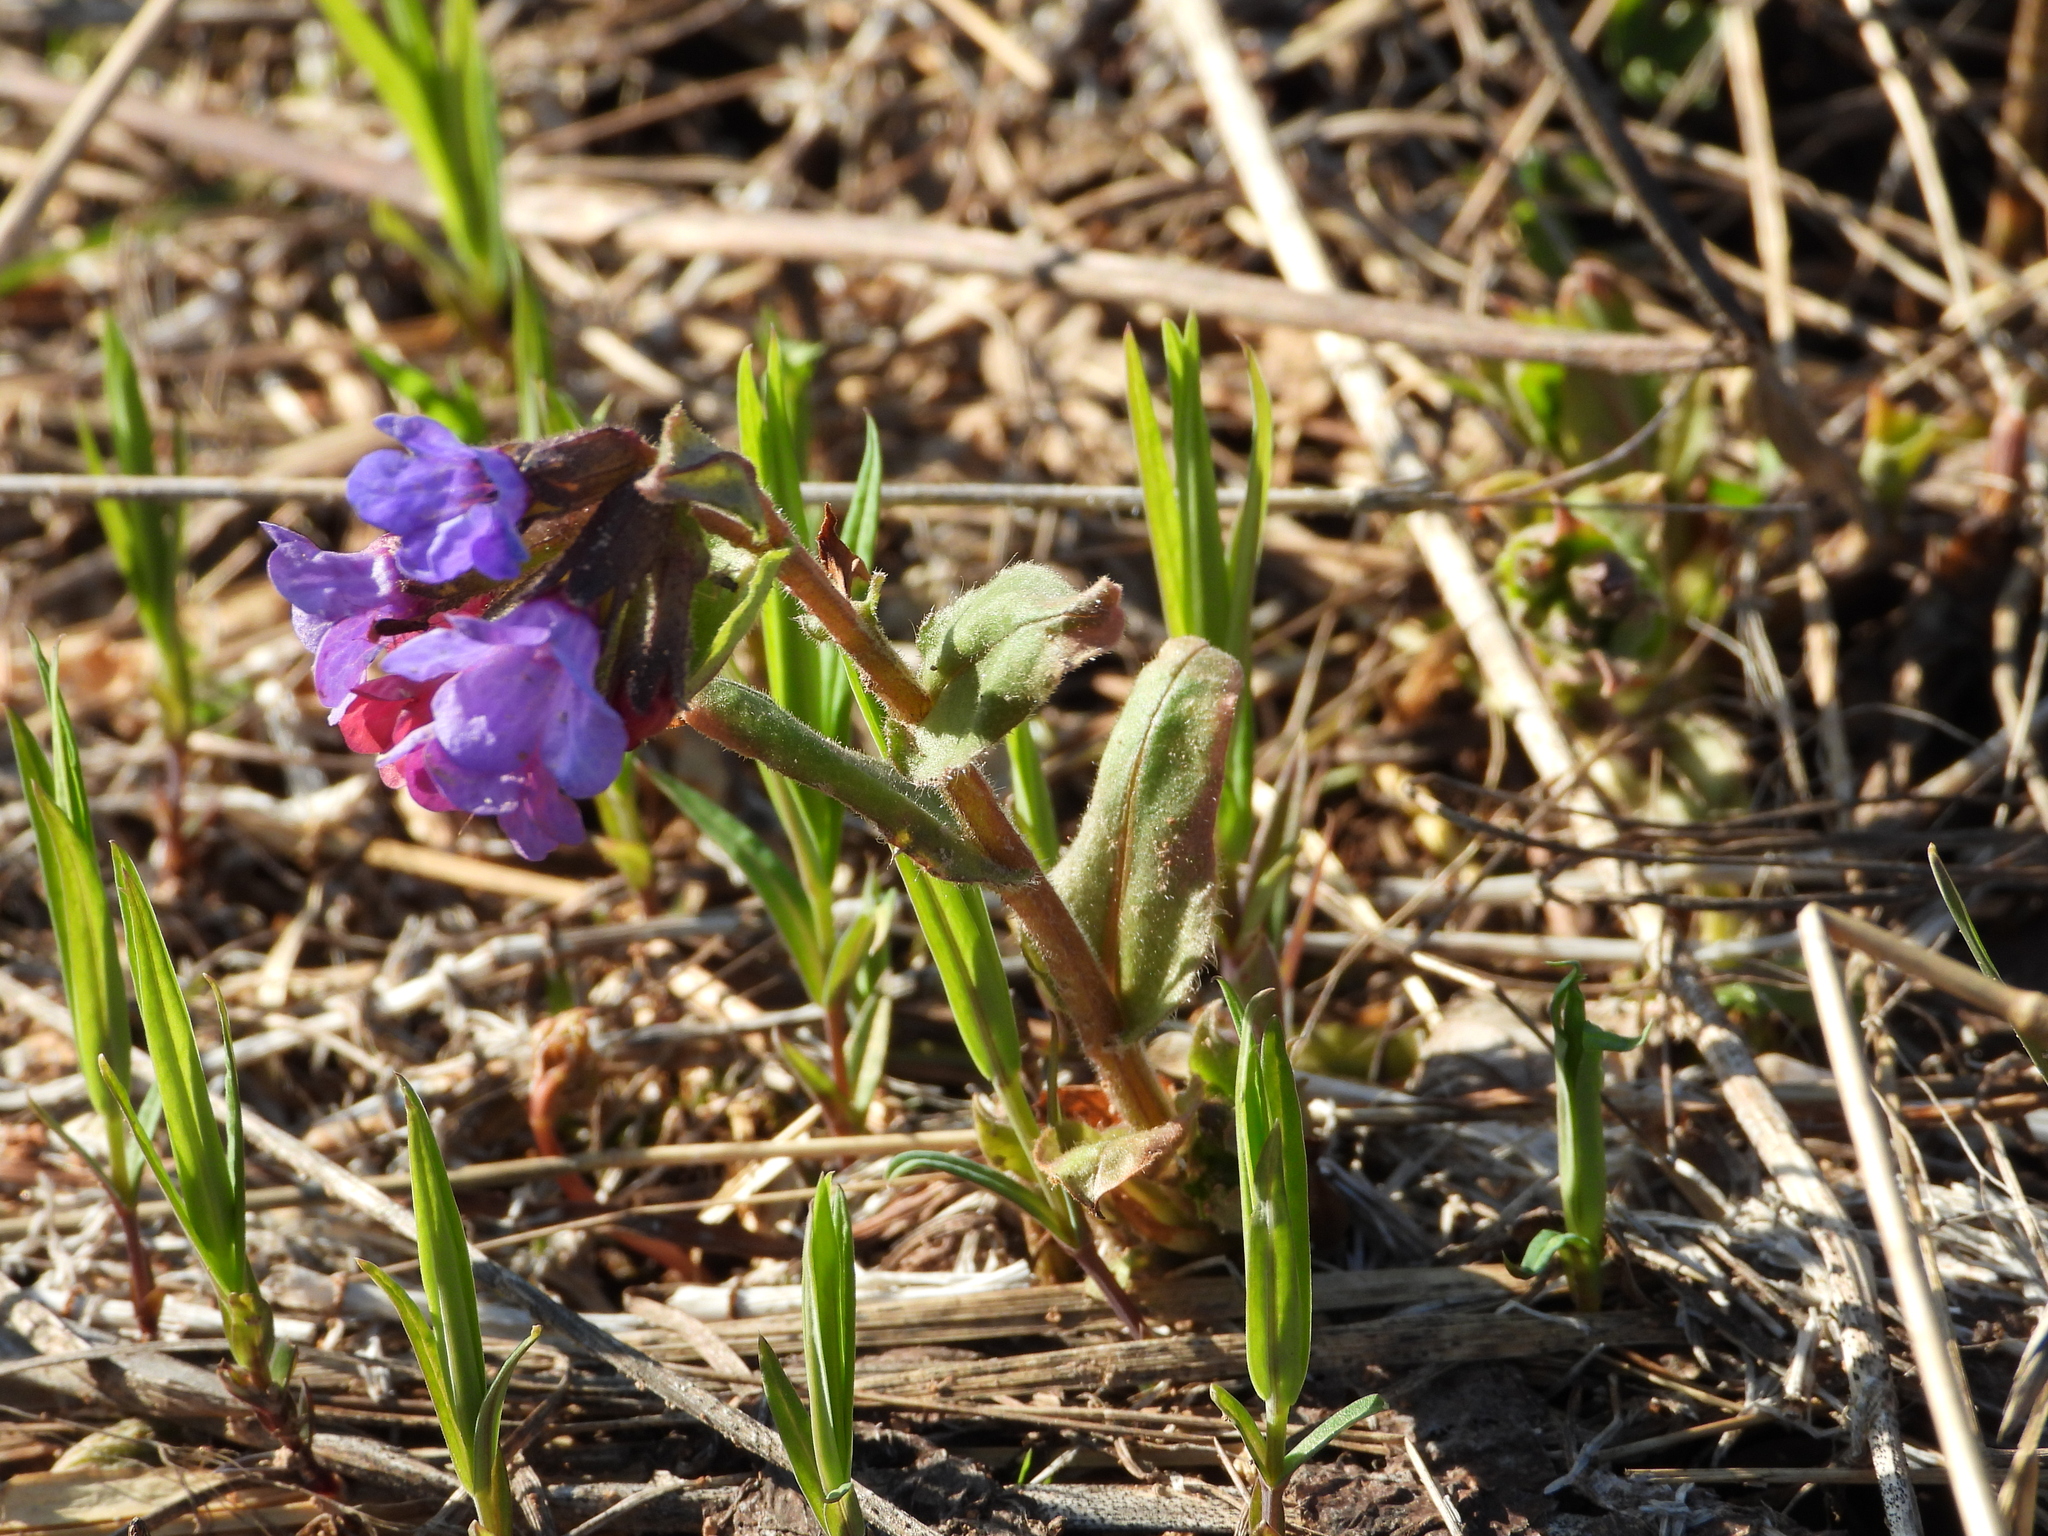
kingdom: Plantae
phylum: Tracheophyta
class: Magnoliopsida
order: Boraginales
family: Boraginaceae
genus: Pulmonaria
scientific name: Pulmonaria obscura
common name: Suffolk lungwort
